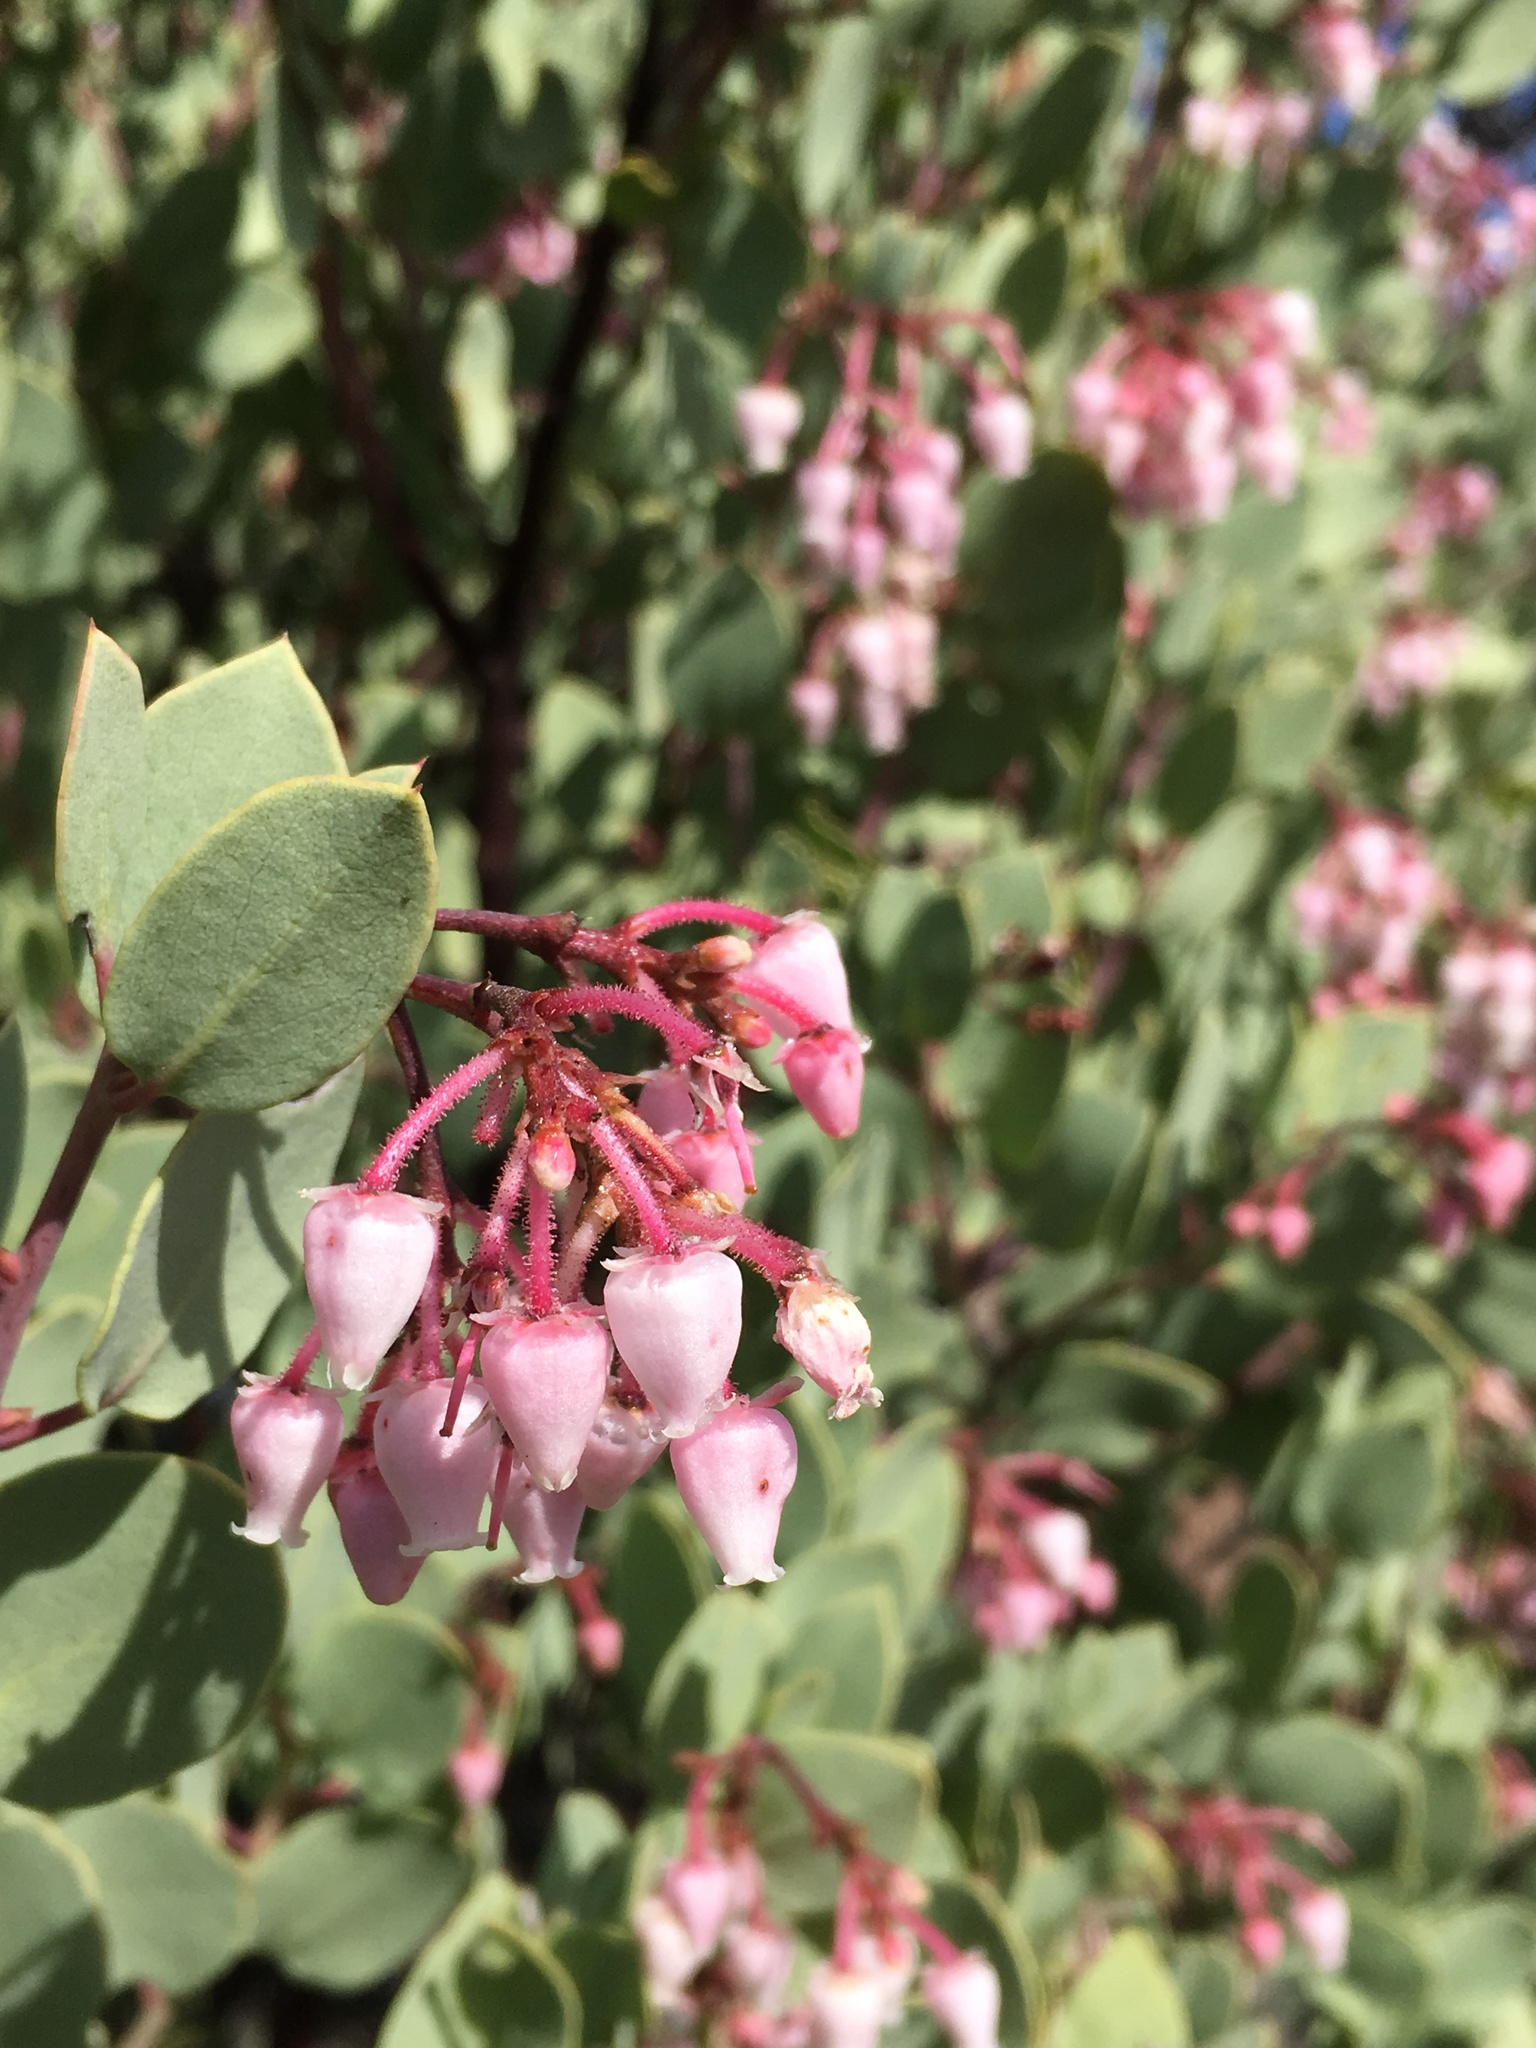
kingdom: Plantae
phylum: Tracheophyta
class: Magnoliopsida
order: Ericales
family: Ericaceae
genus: Arctostaphylos
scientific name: Arctostaphylos viscida
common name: White-leaf manzanita
